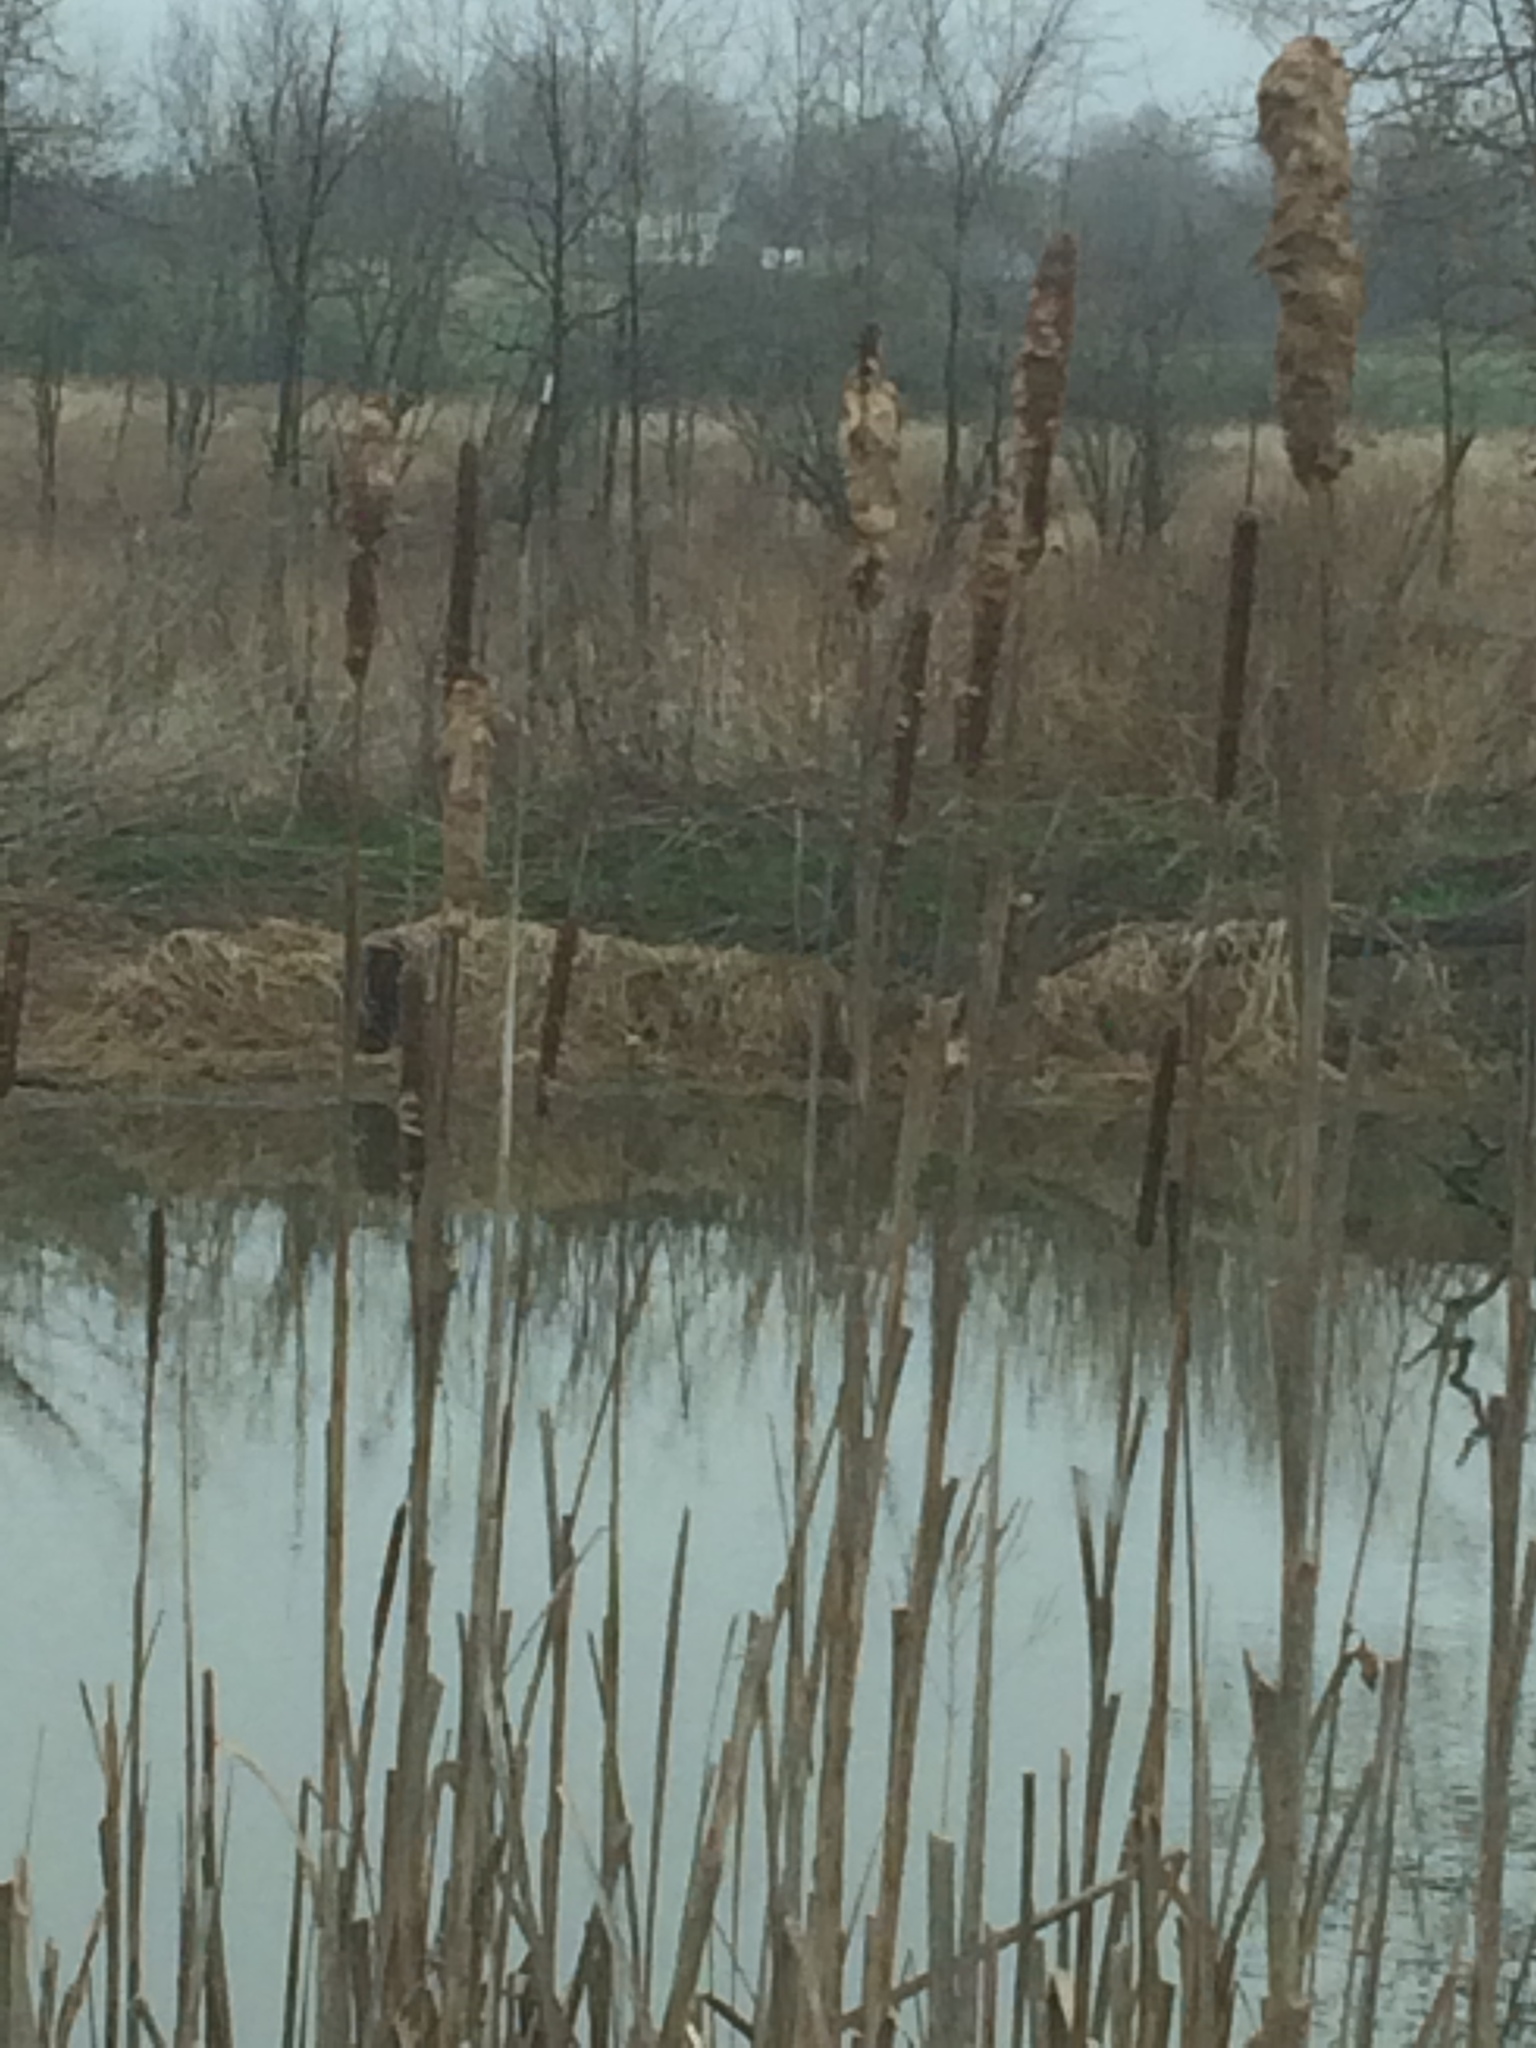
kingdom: Plantae
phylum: Tracheophyta
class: Liliopsida
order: Poales
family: Typhaceae
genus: Typha
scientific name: Typha angustifolia
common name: Lesser bulrush
